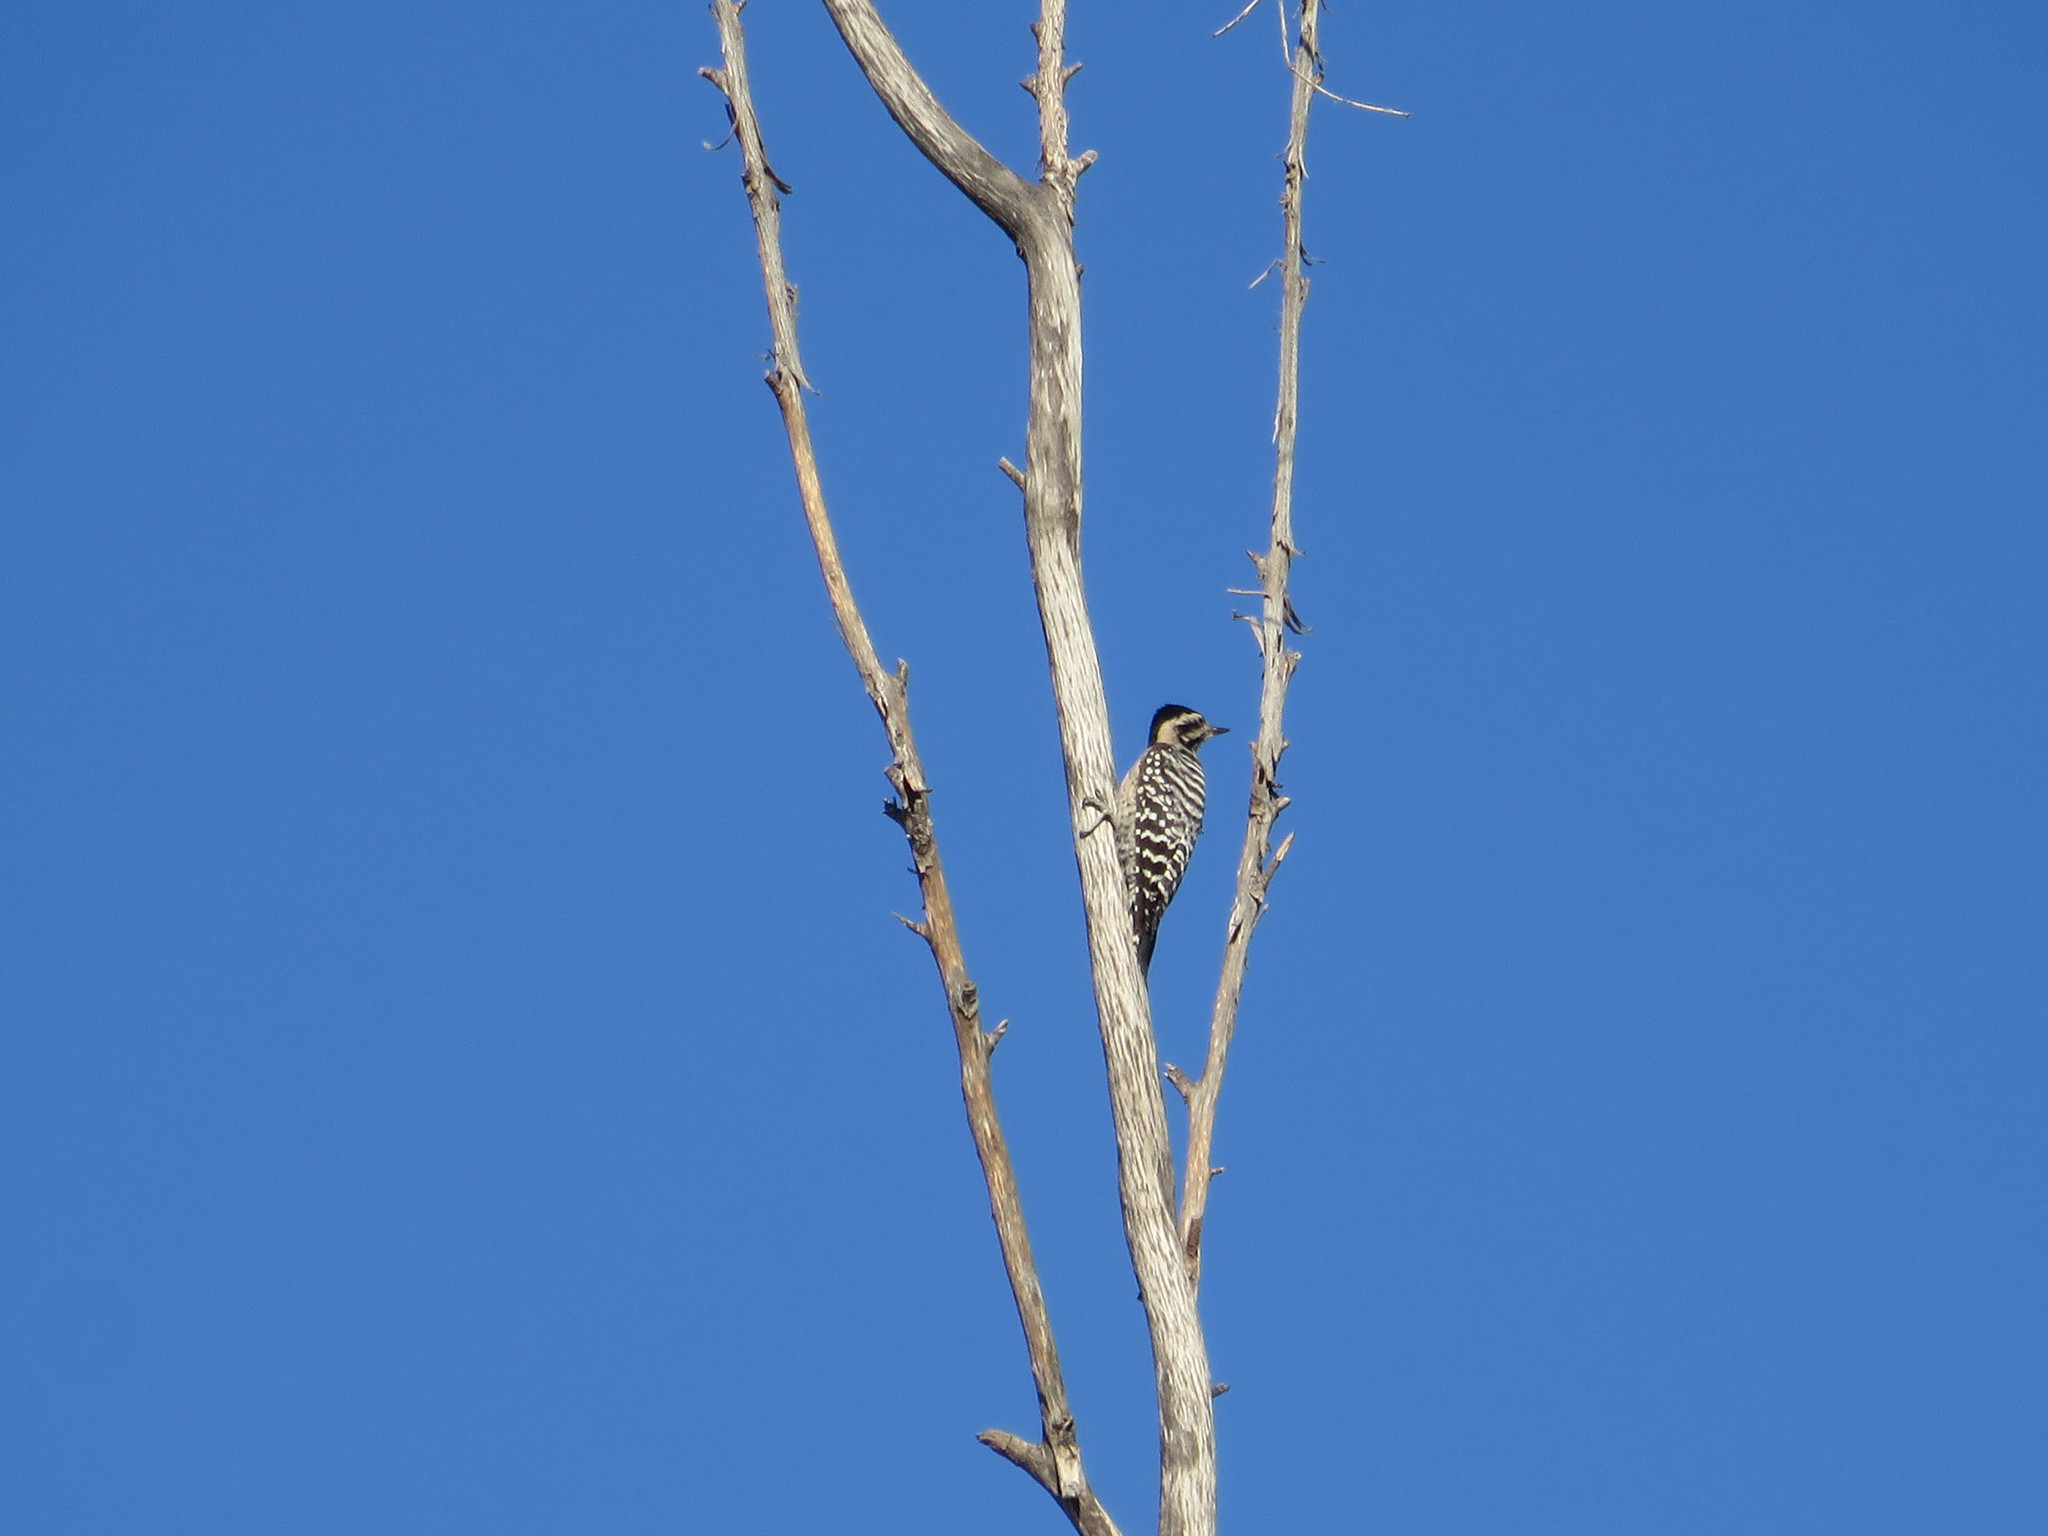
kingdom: Animalia
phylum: Chordata
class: Aves
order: Piciformes
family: Picidae
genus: Dryobates
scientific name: Dryobates scalaris
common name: Ladder-backed woodpecker
